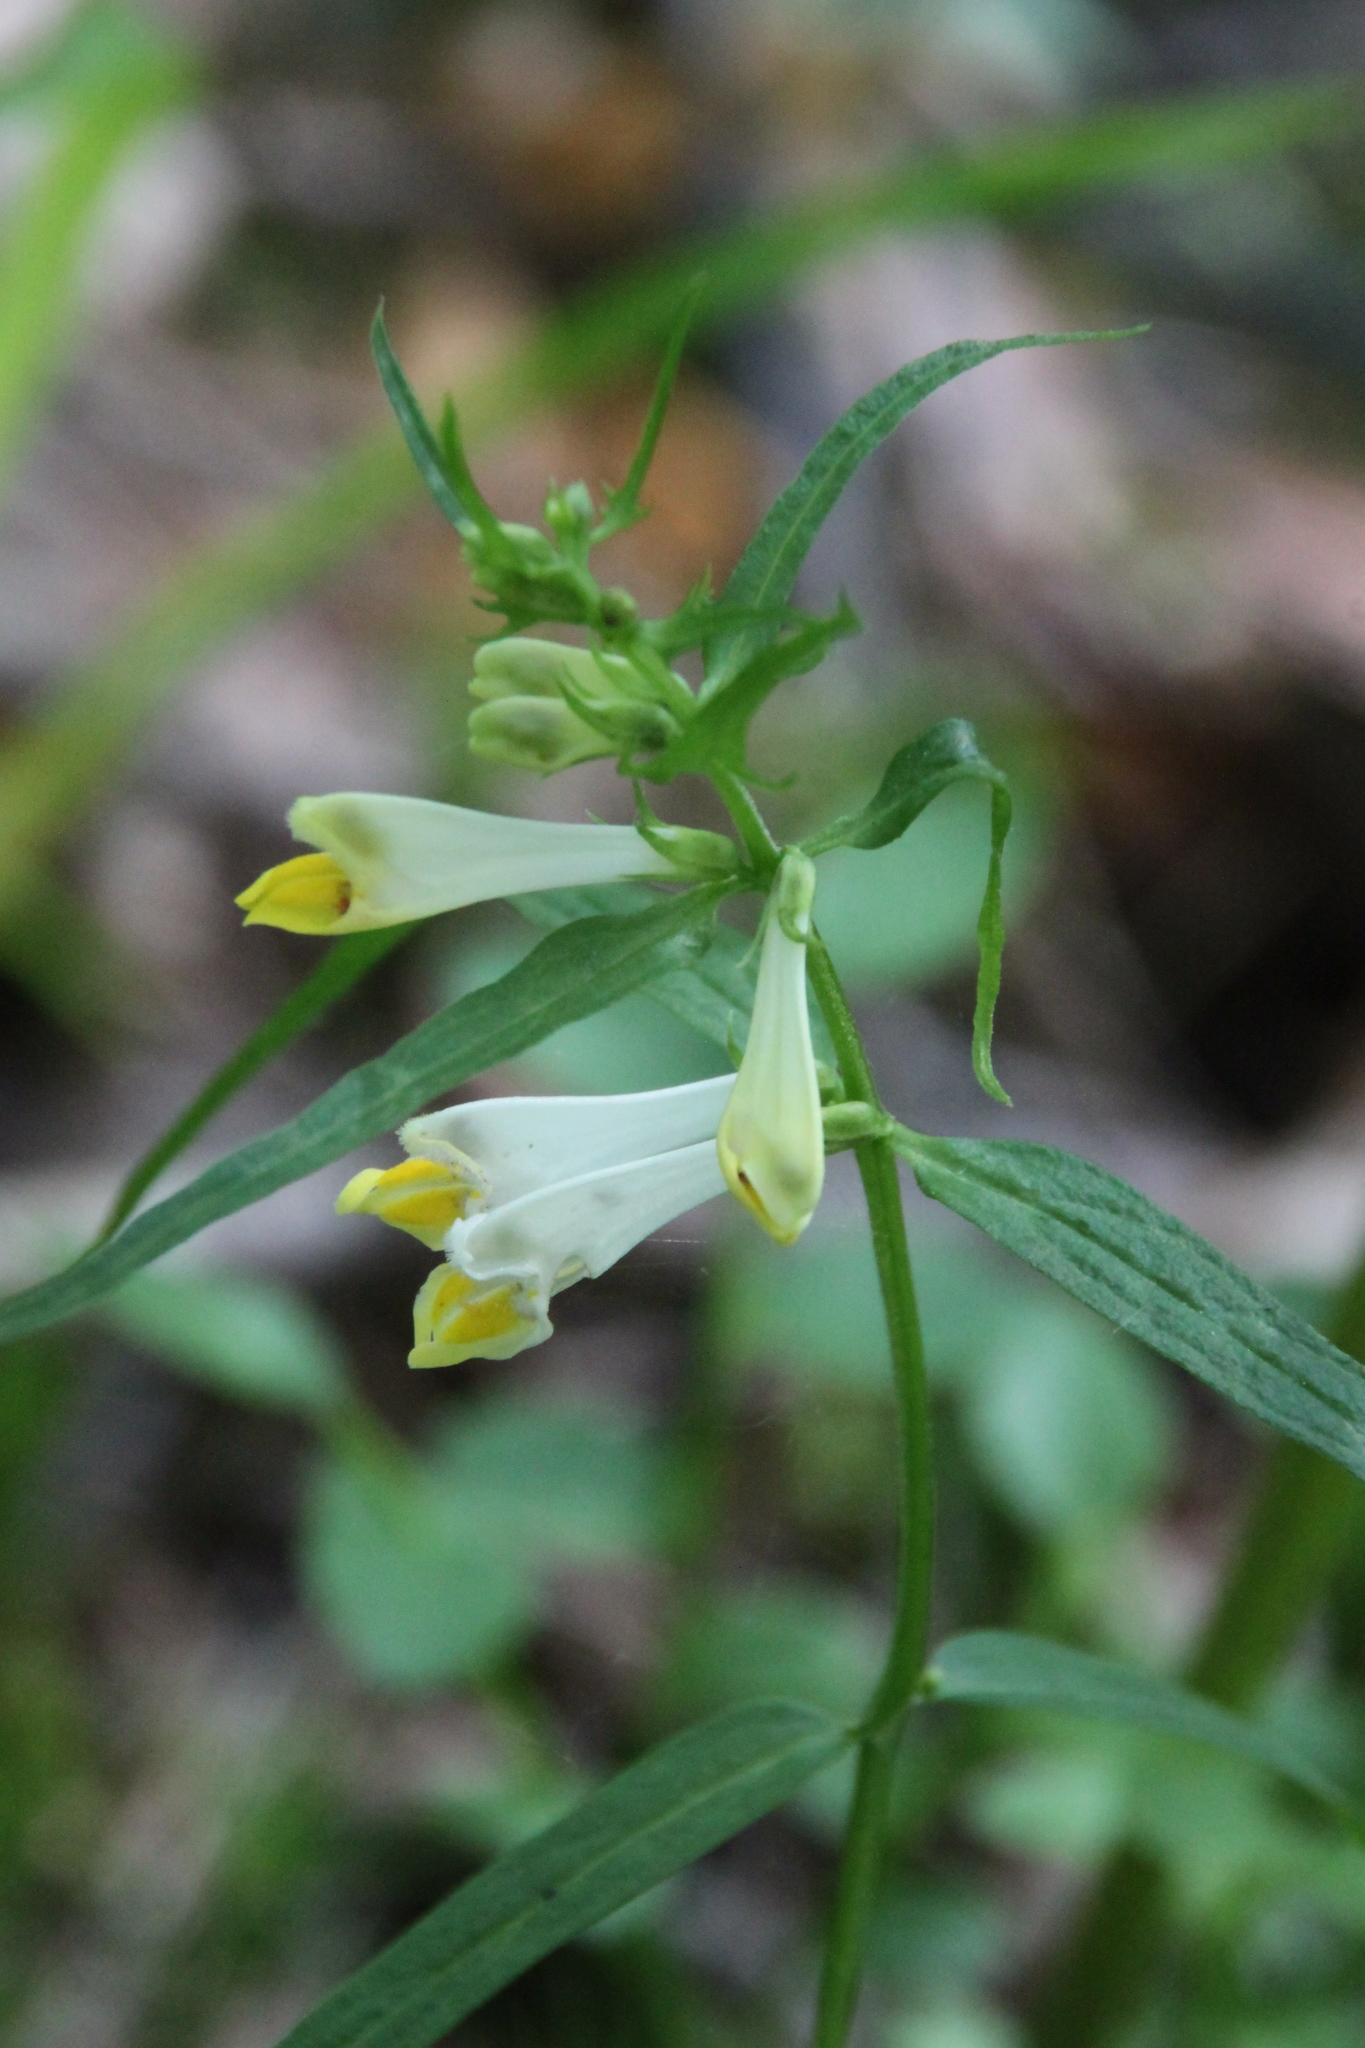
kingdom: Plantae
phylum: Tracheophyta
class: Magnoliopsida
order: Lamiales
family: Orobanchaceae
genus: Melampyrum
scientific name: Melampyrum pratense
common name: Common cow-wheat
